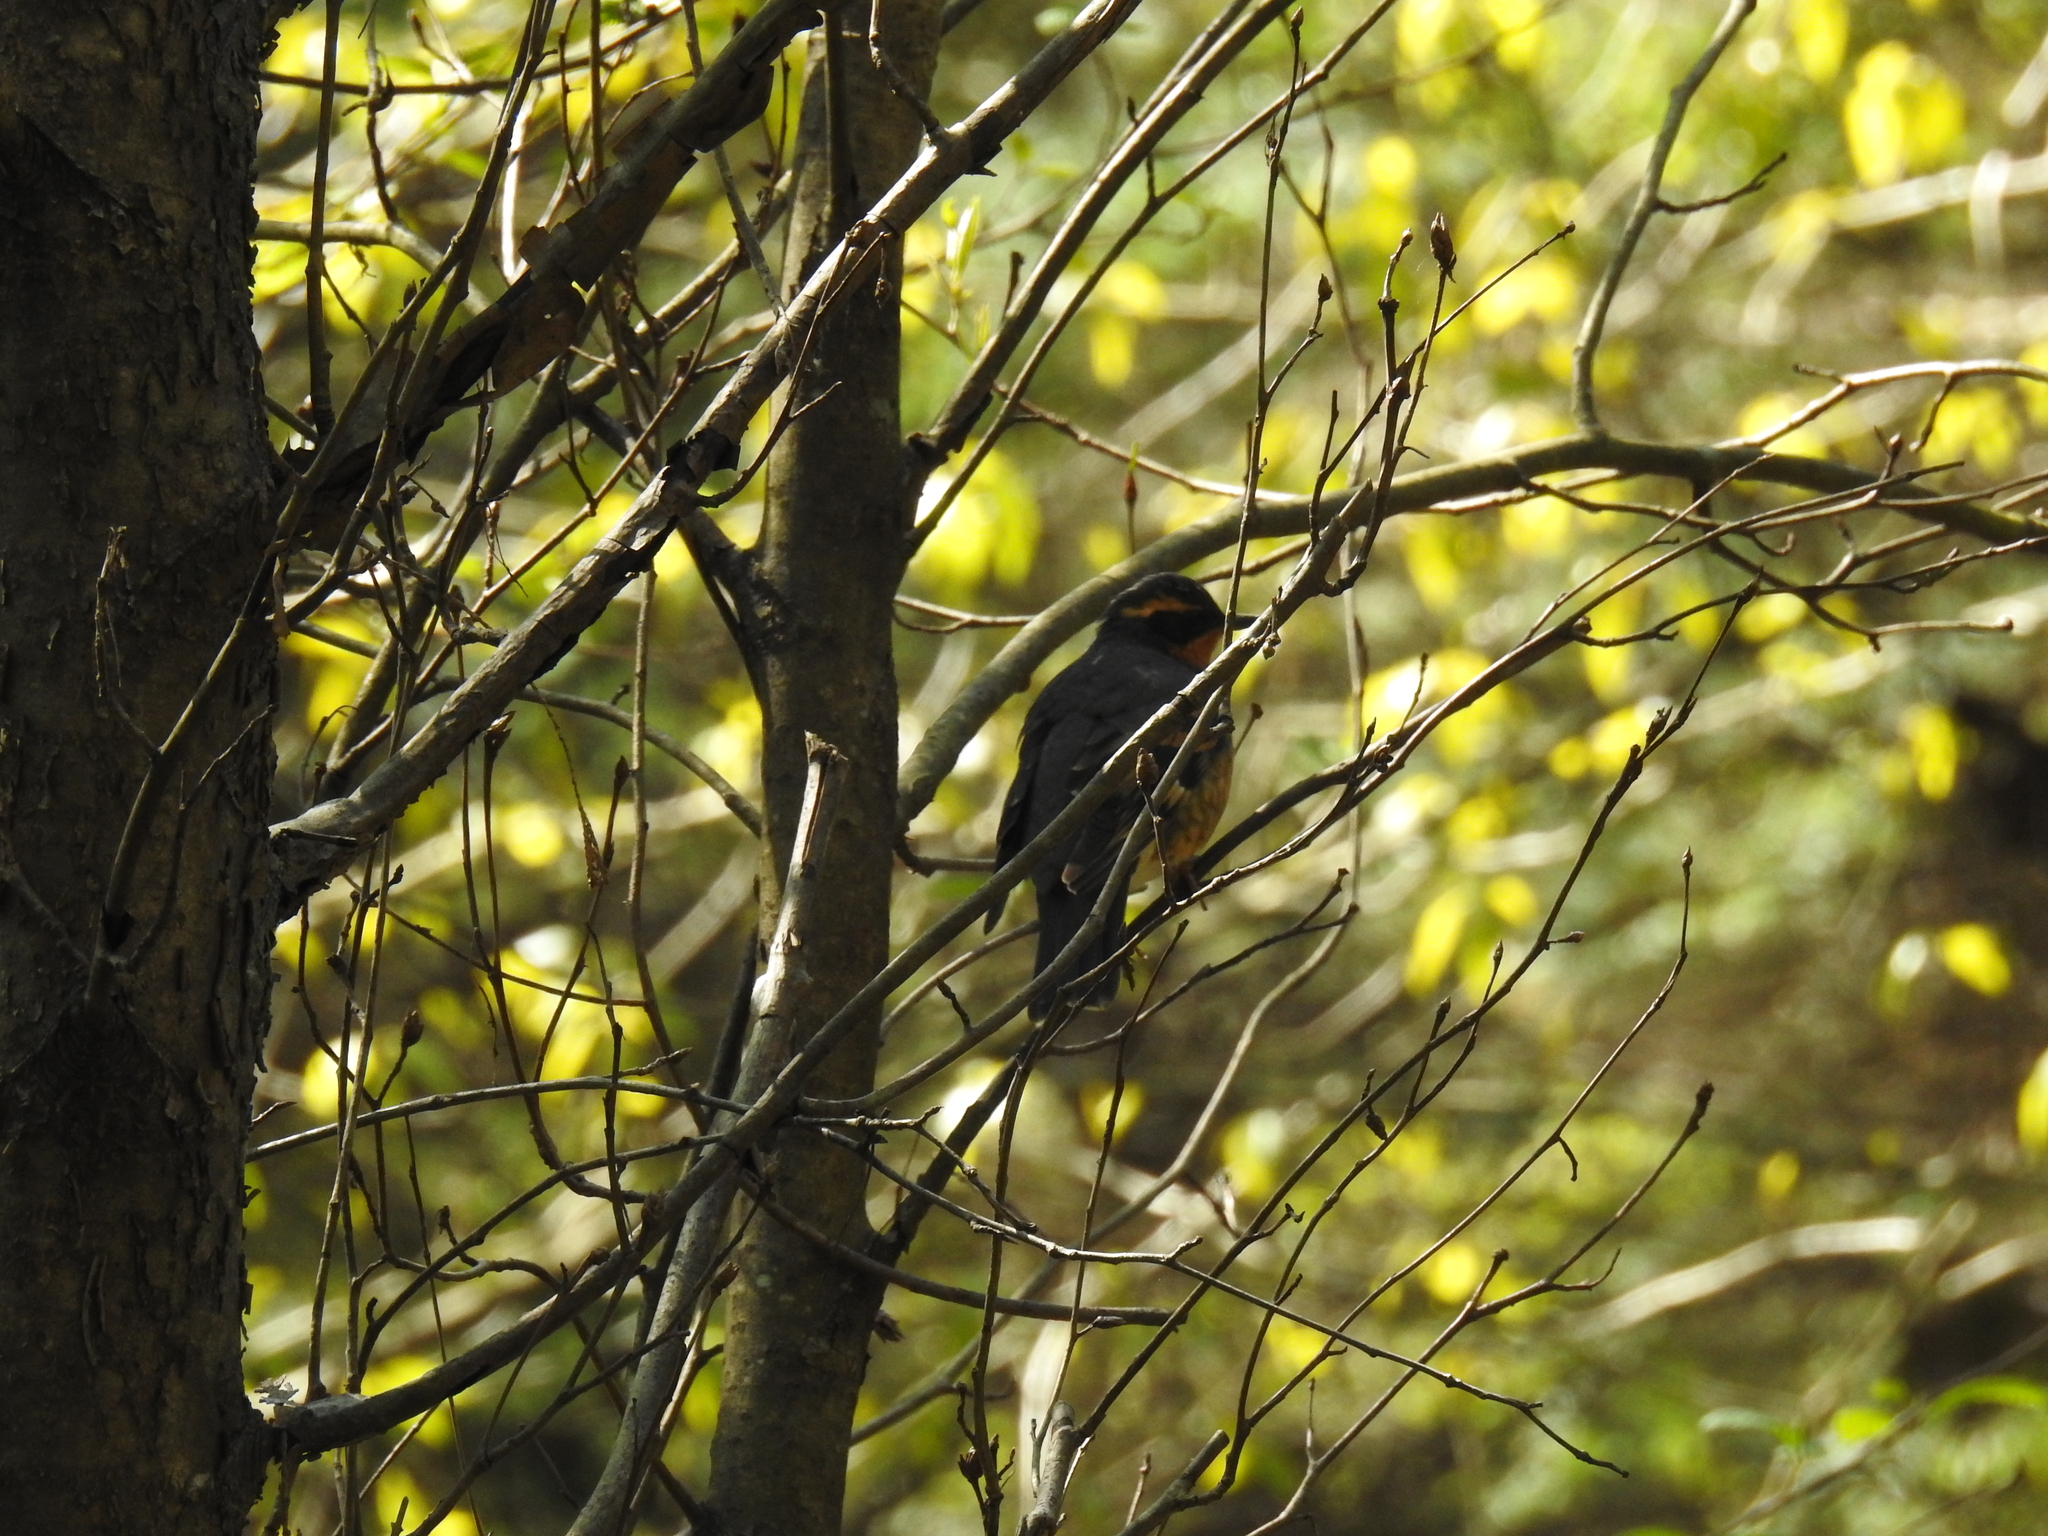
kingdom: Animalia
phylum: Chordata
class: Aves
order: Passeriformes
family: Turdidae
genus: Ixoreus
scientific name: Ixoreus naevius
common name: Varied thrush
